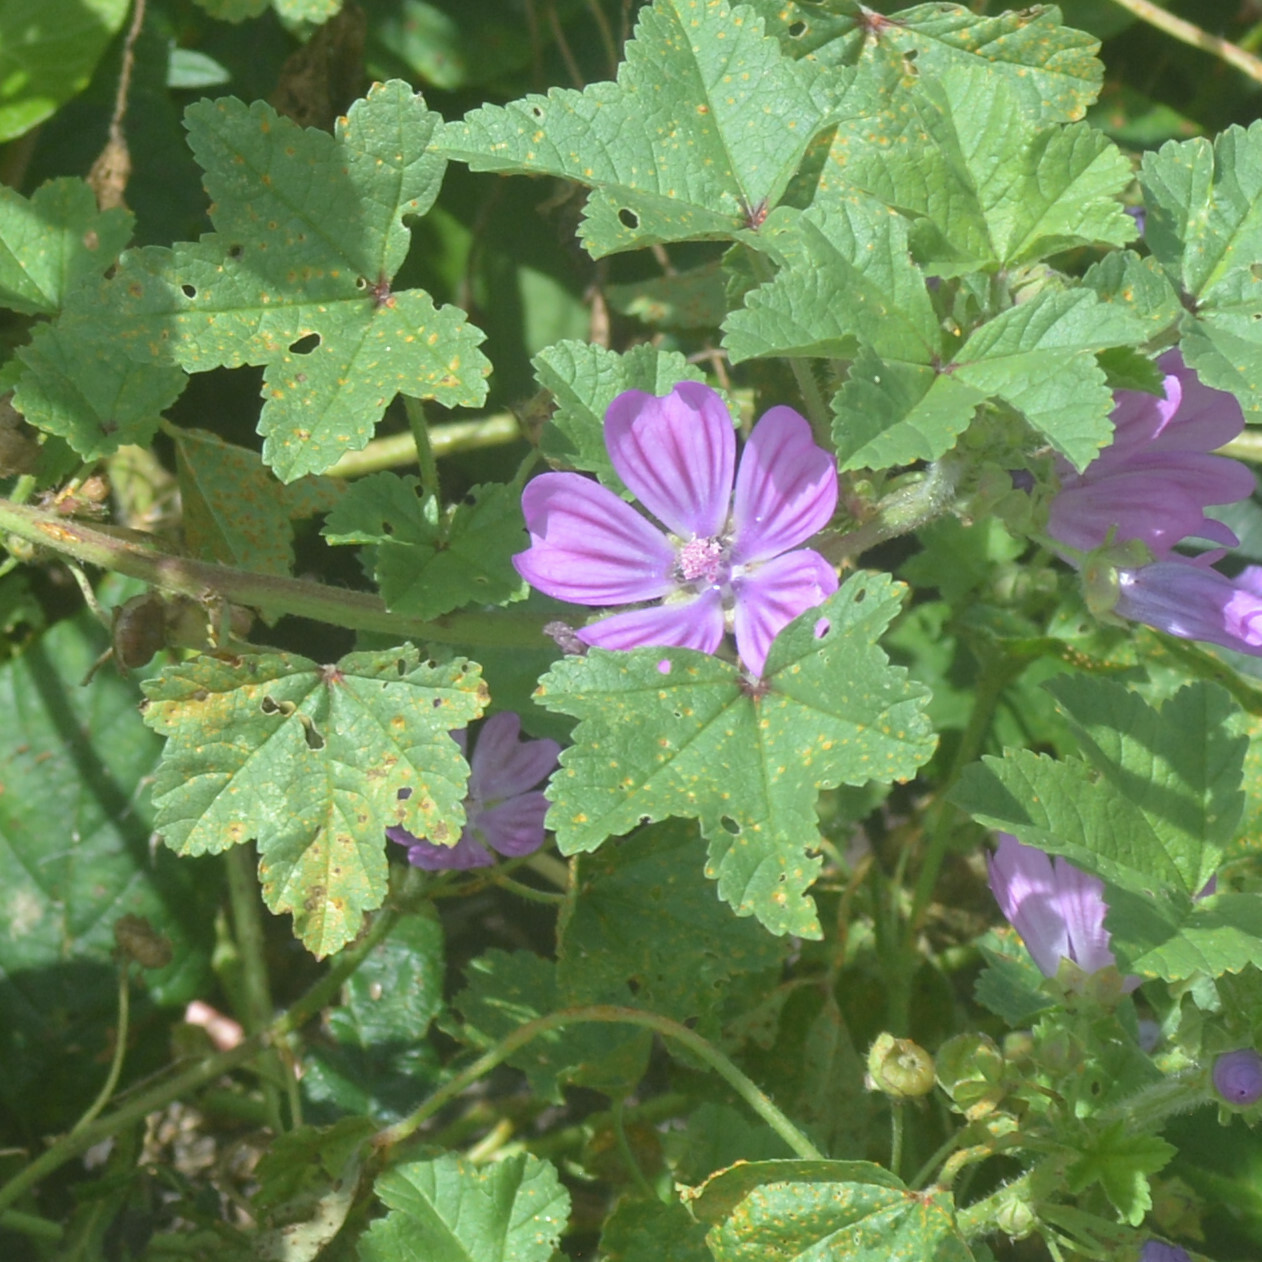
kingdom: Fungi
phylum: Basidiomycota
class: Pucciniomycetes
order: Pucciniales
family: Pucciniaceae
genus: Puccinia
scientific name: Puccinia malvacearum
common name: Hollyhock rust
